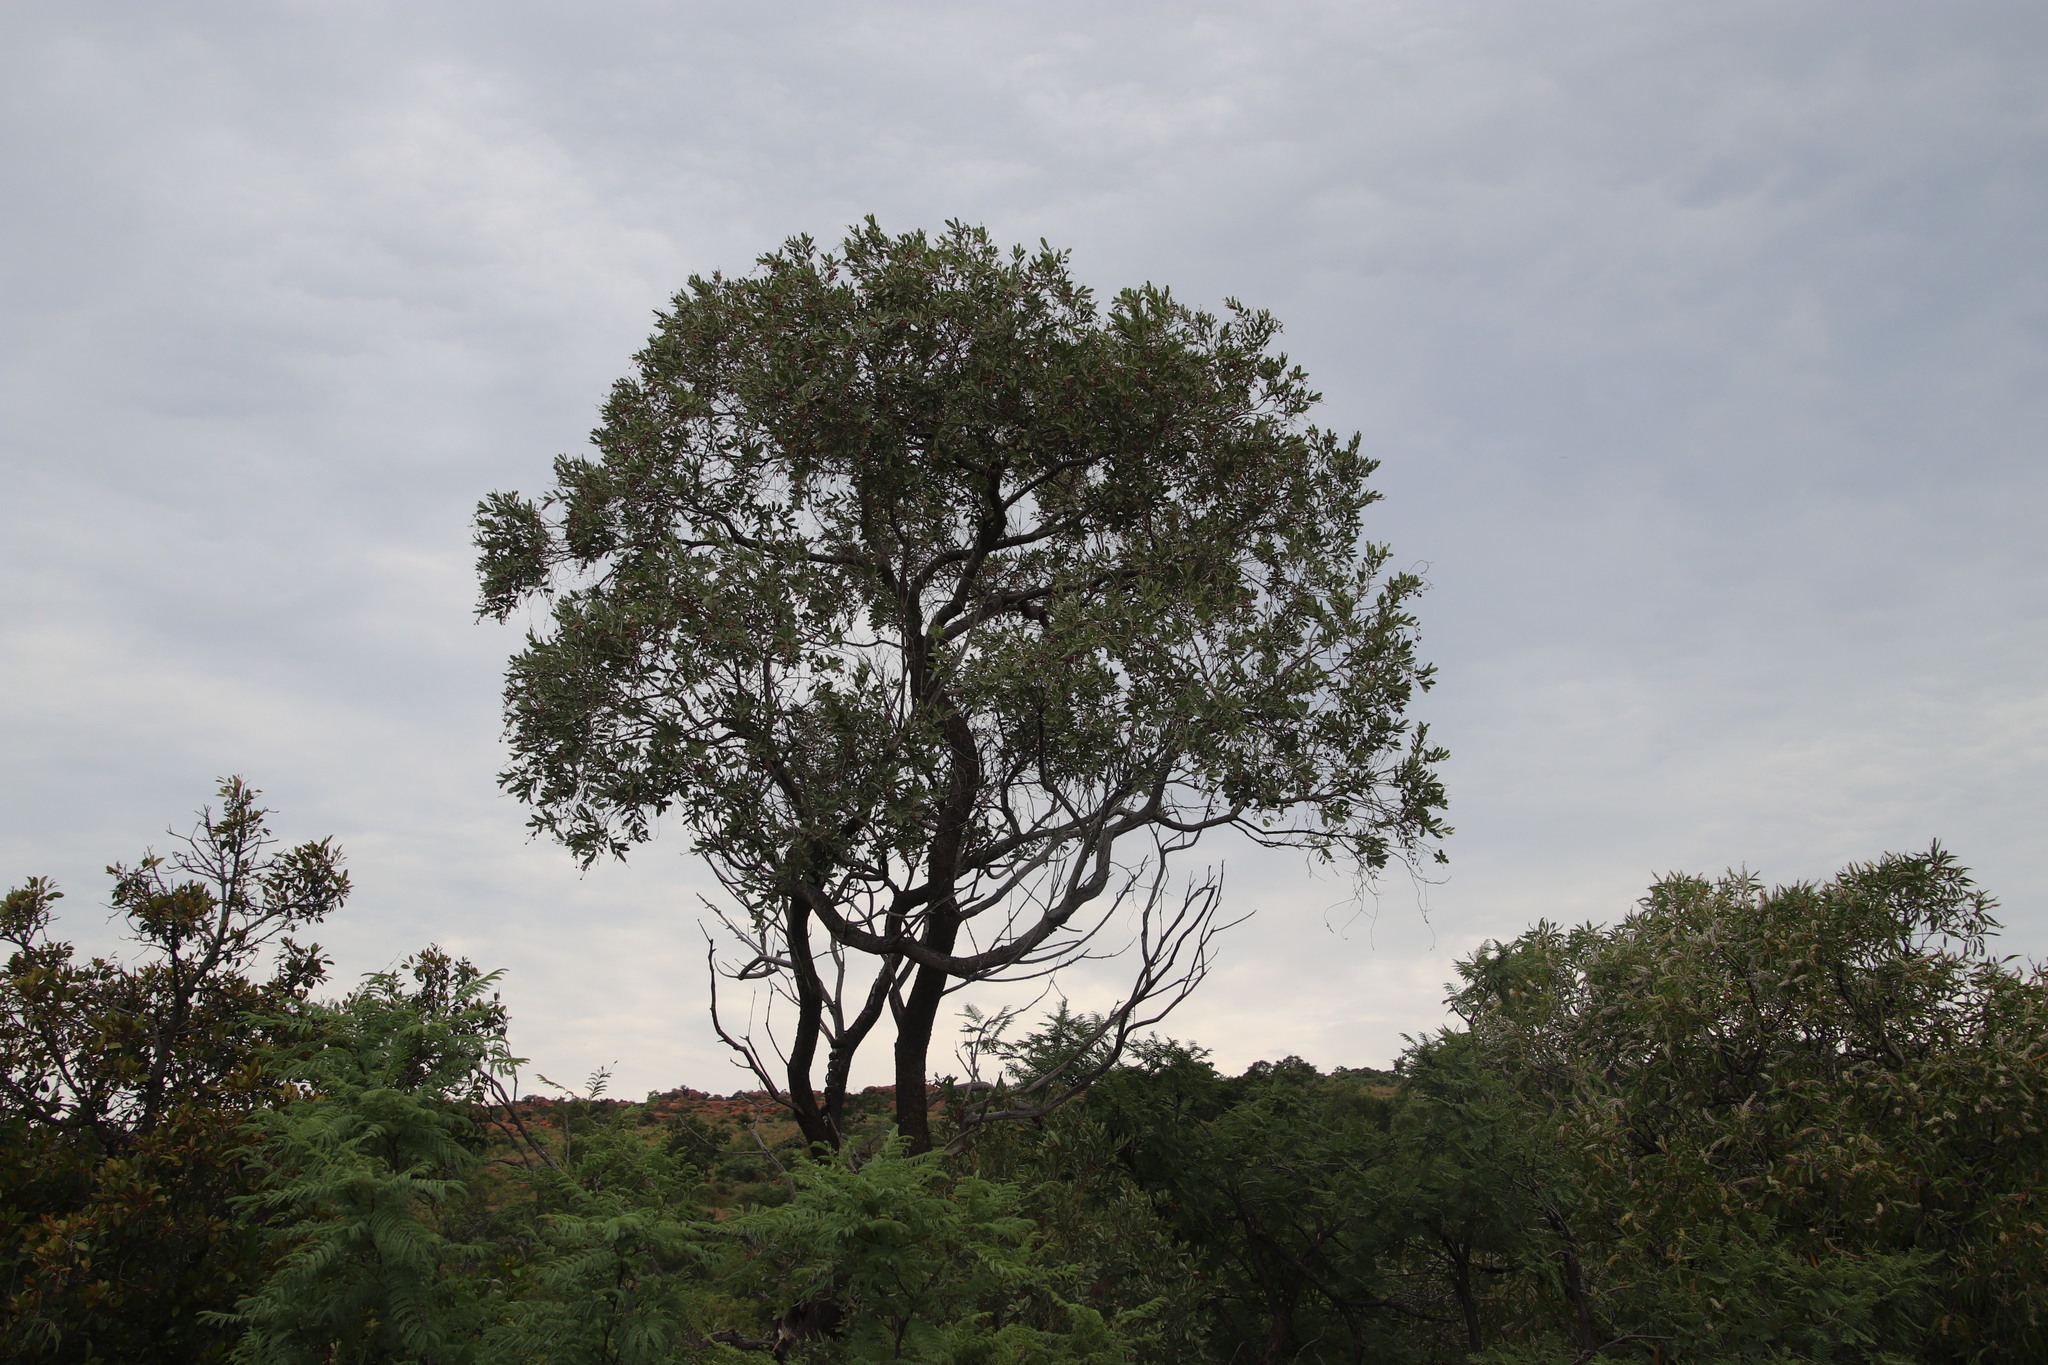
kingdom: Plantae
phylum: Tracheophyta
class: Magnoliopsida
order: Sapindales
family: Anacardiaceae
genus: Ozoroa
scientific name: Ozoroa paniculosa
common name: Bushveld ozoroa
